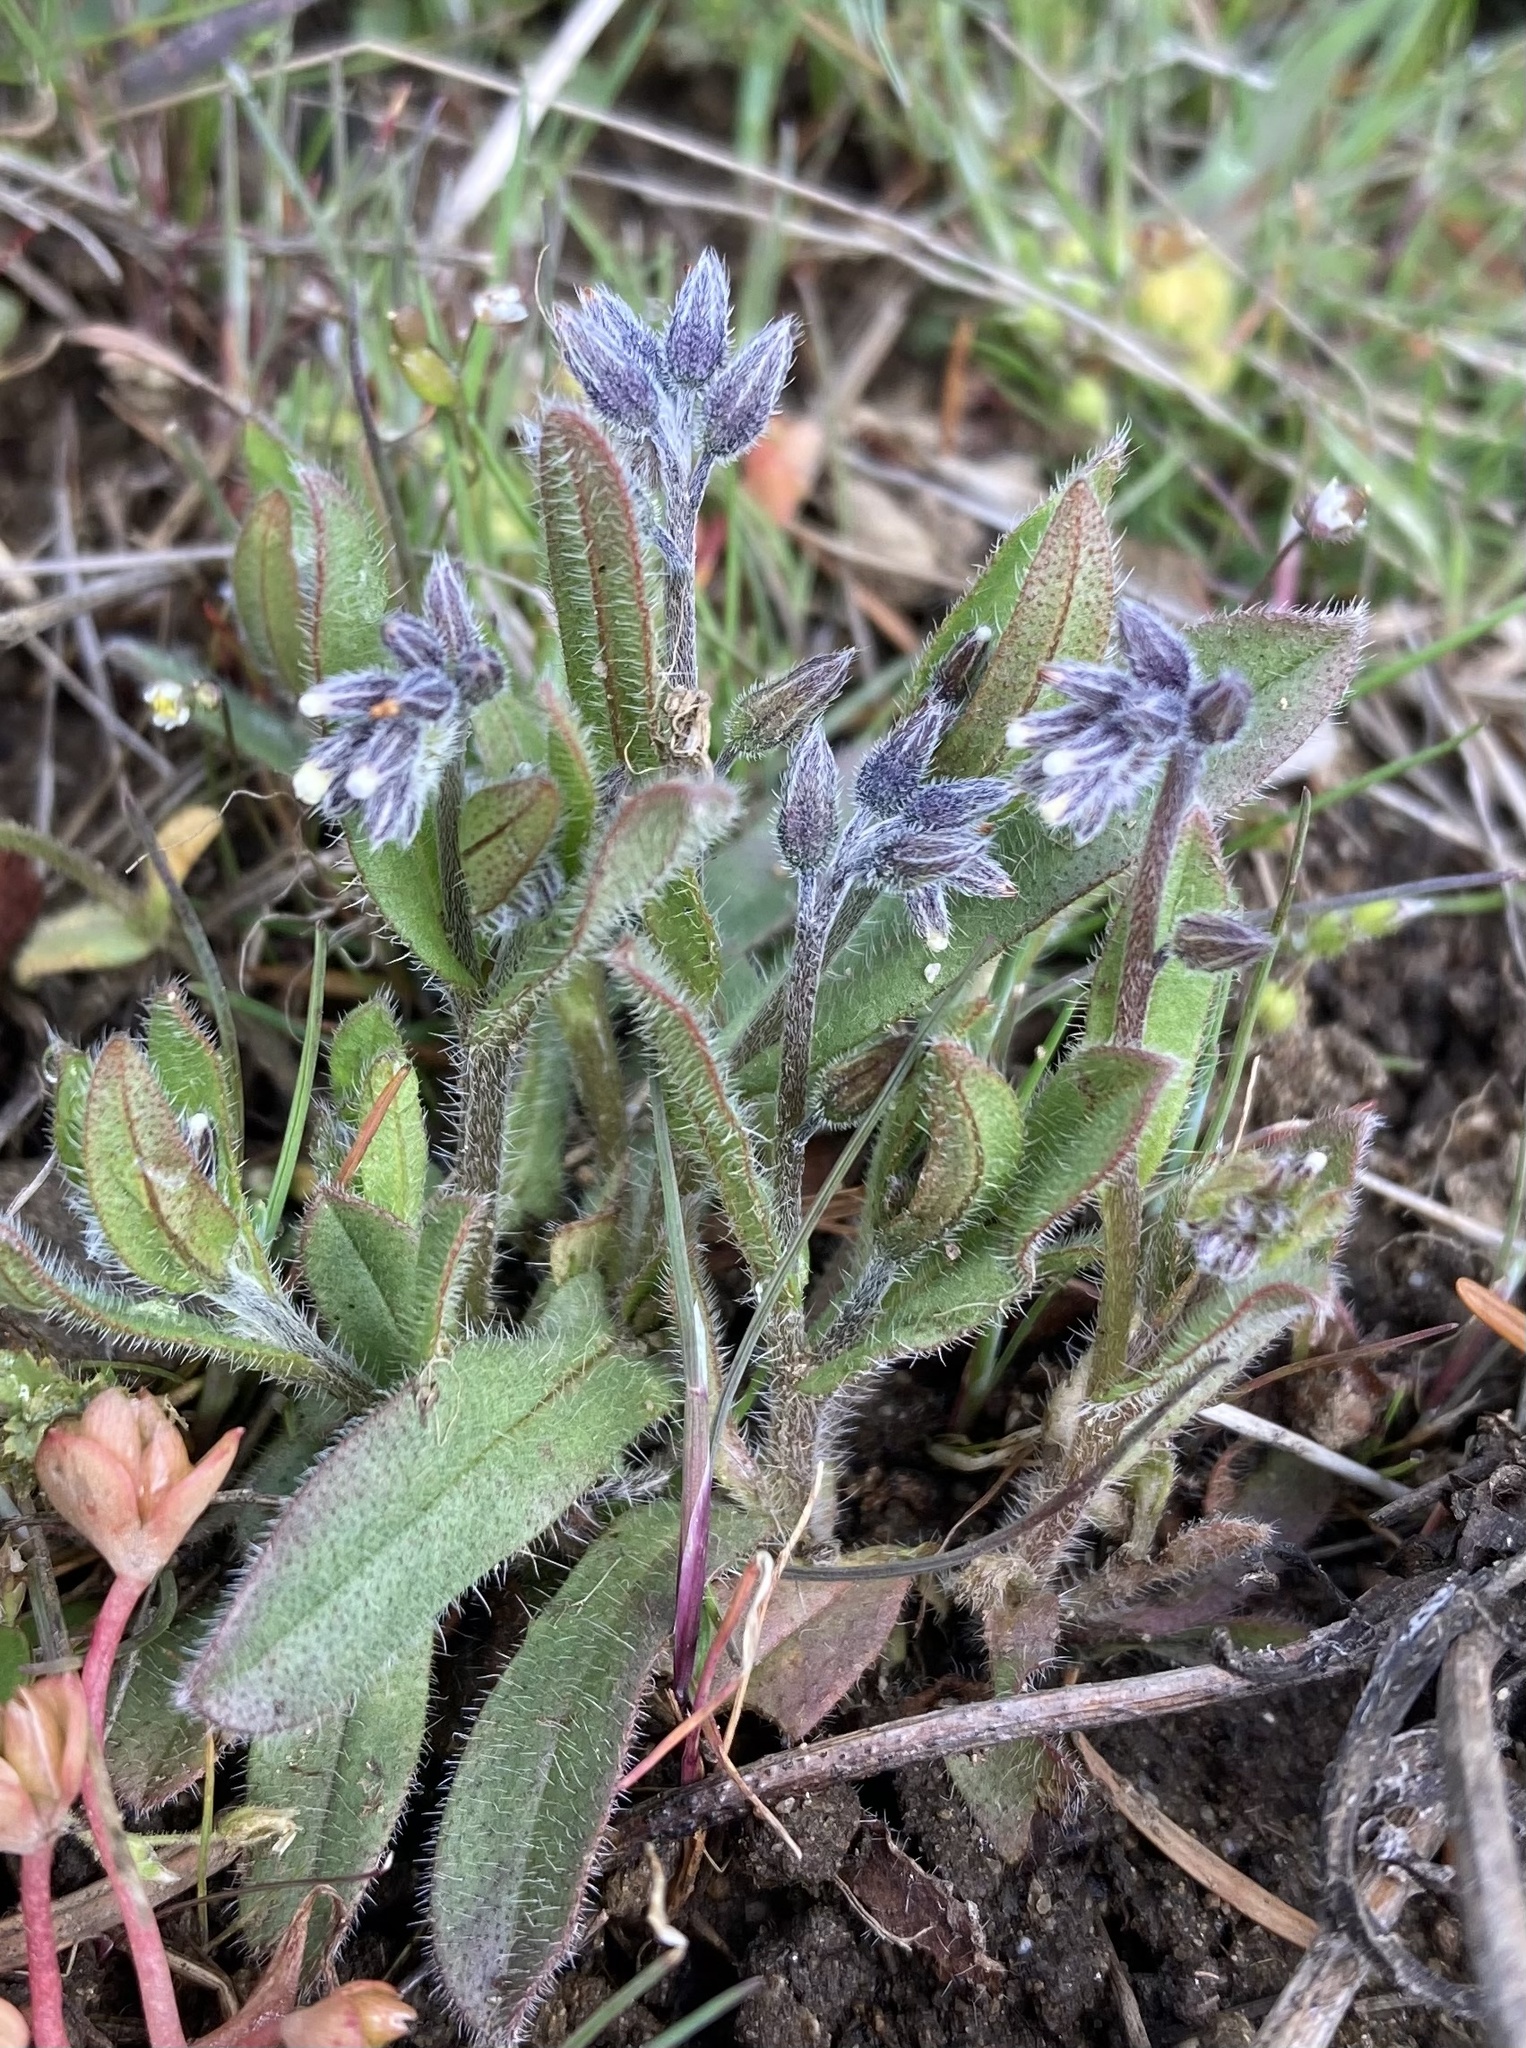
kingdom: Plantae
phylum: Tracheophyta
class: Magnoliopsida
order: Boraginales
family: Boraginaceae
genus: Myosotis
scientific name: Myosotis discolor
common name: Changing forget-me-not
